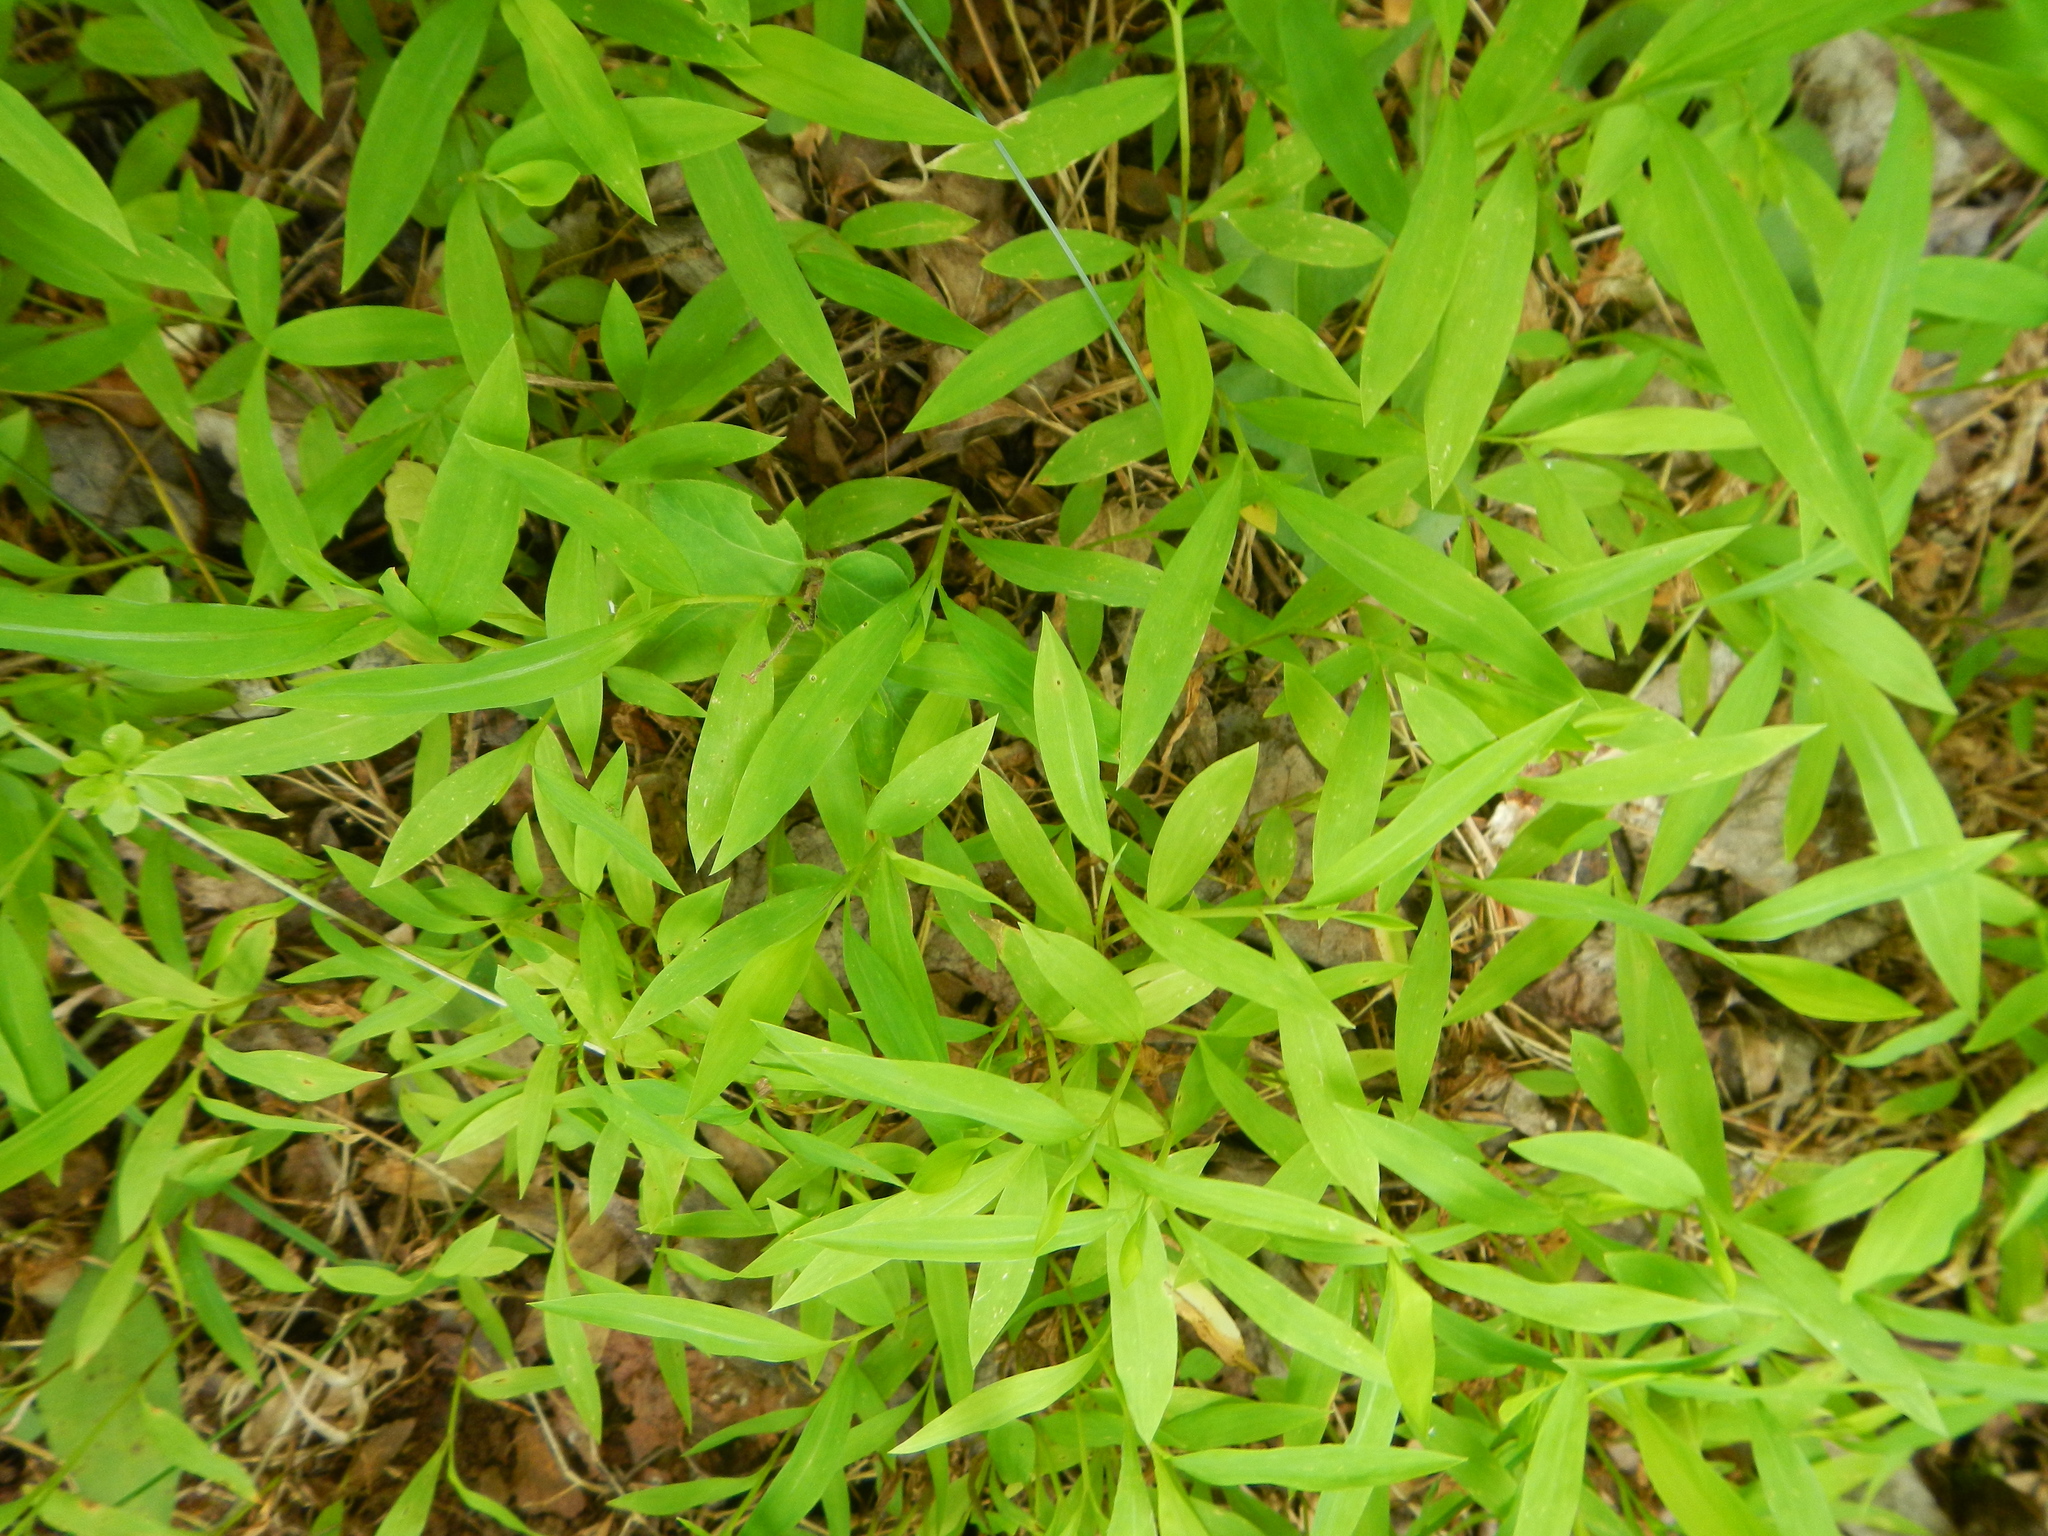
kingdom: Plantae
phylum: Tracheophyta
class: Liliopsida
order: Poales
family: Poaceae
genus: Microstegium
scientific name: Microstegium vimineum
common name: Japanese stiltgrass
